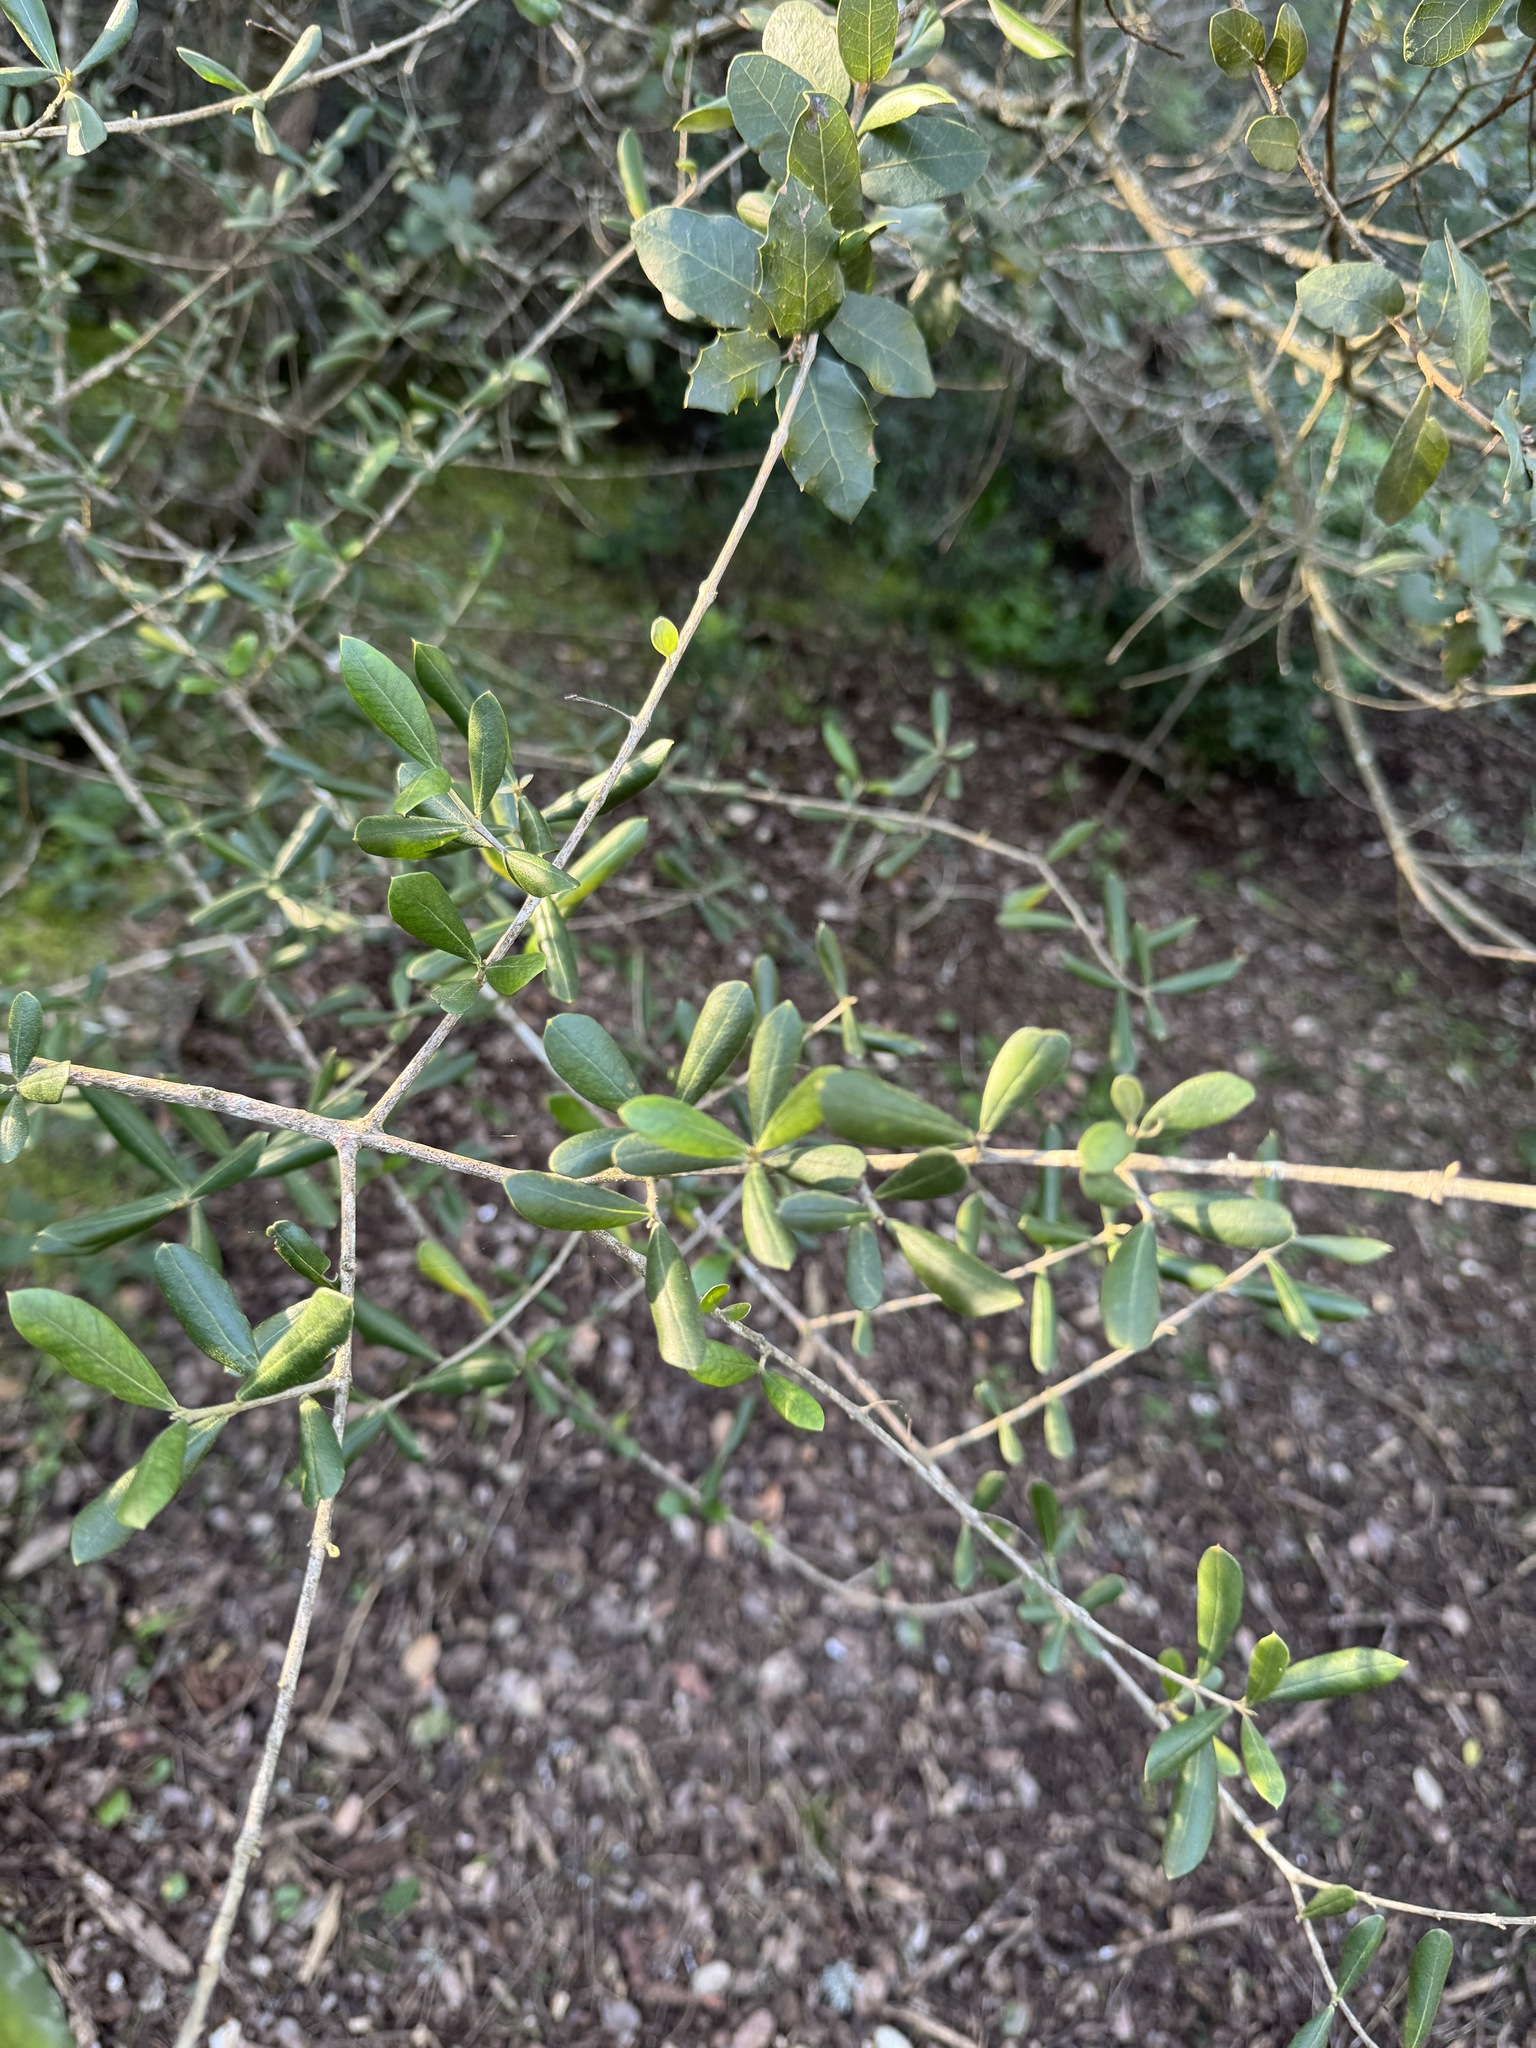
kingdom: Plantae
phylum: Tracheophyta
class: Magnoliopsida
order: Lamiales
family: Oleaceae
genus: Olea
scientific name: Olea europaea
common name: Olive
